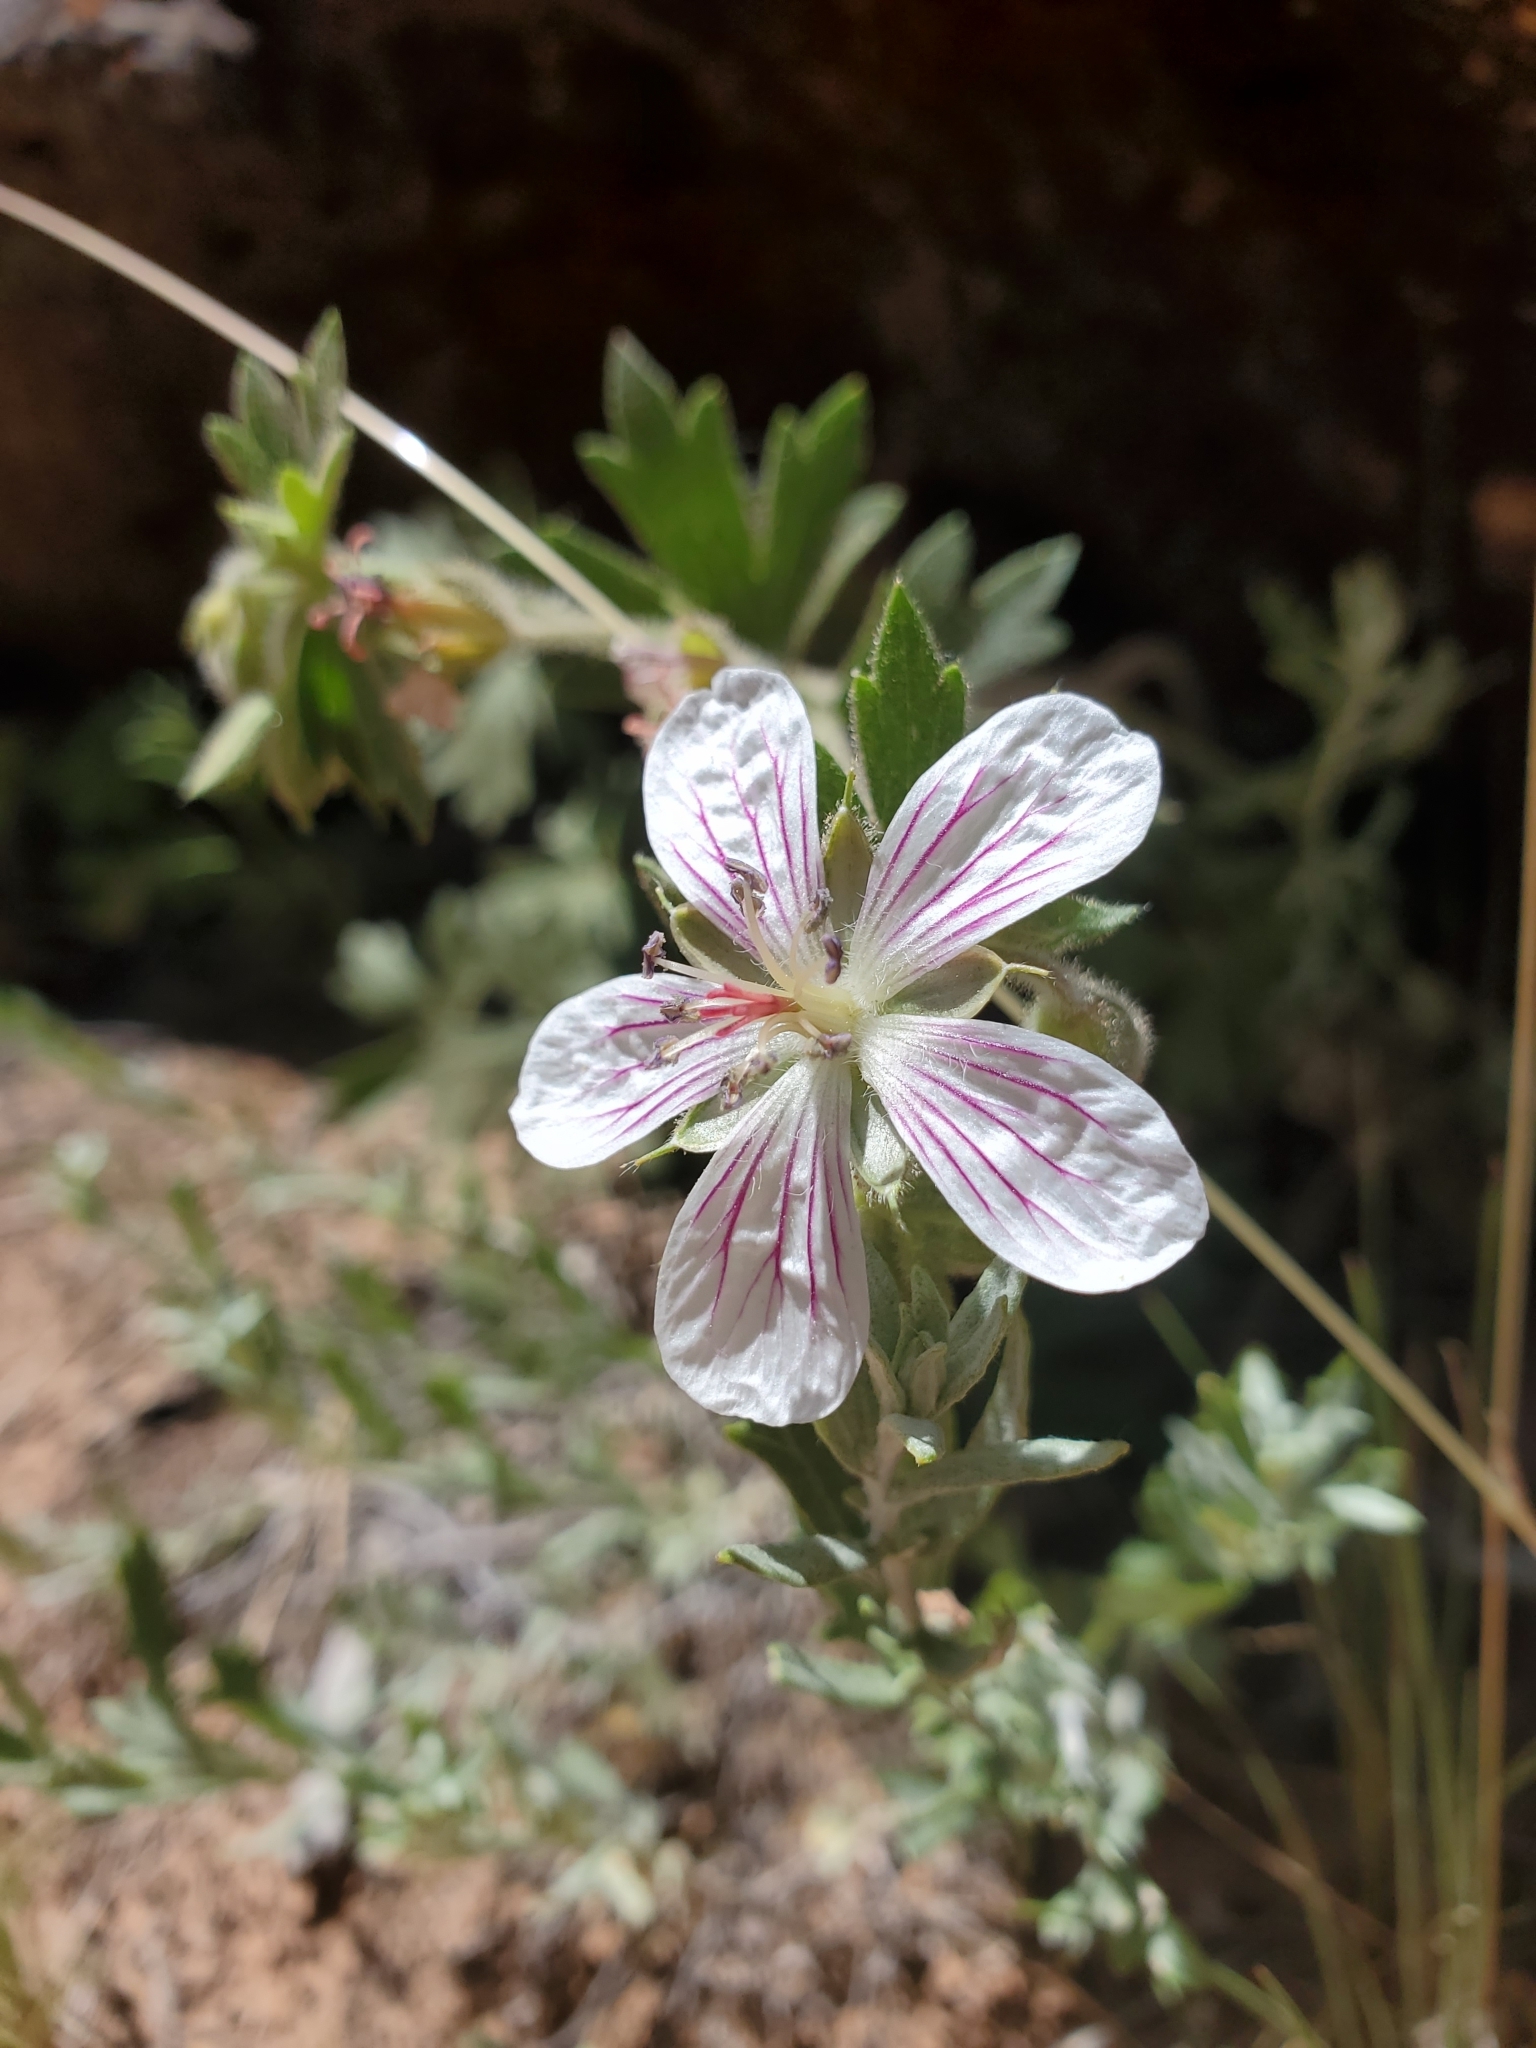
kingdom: Plantae
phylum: Tracheophyta
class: Magnoliopsida
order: Geraniales
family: Geraniaceae
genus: Geranium
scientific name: Geranium richardsonii
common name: Richardson's crane's-bill
